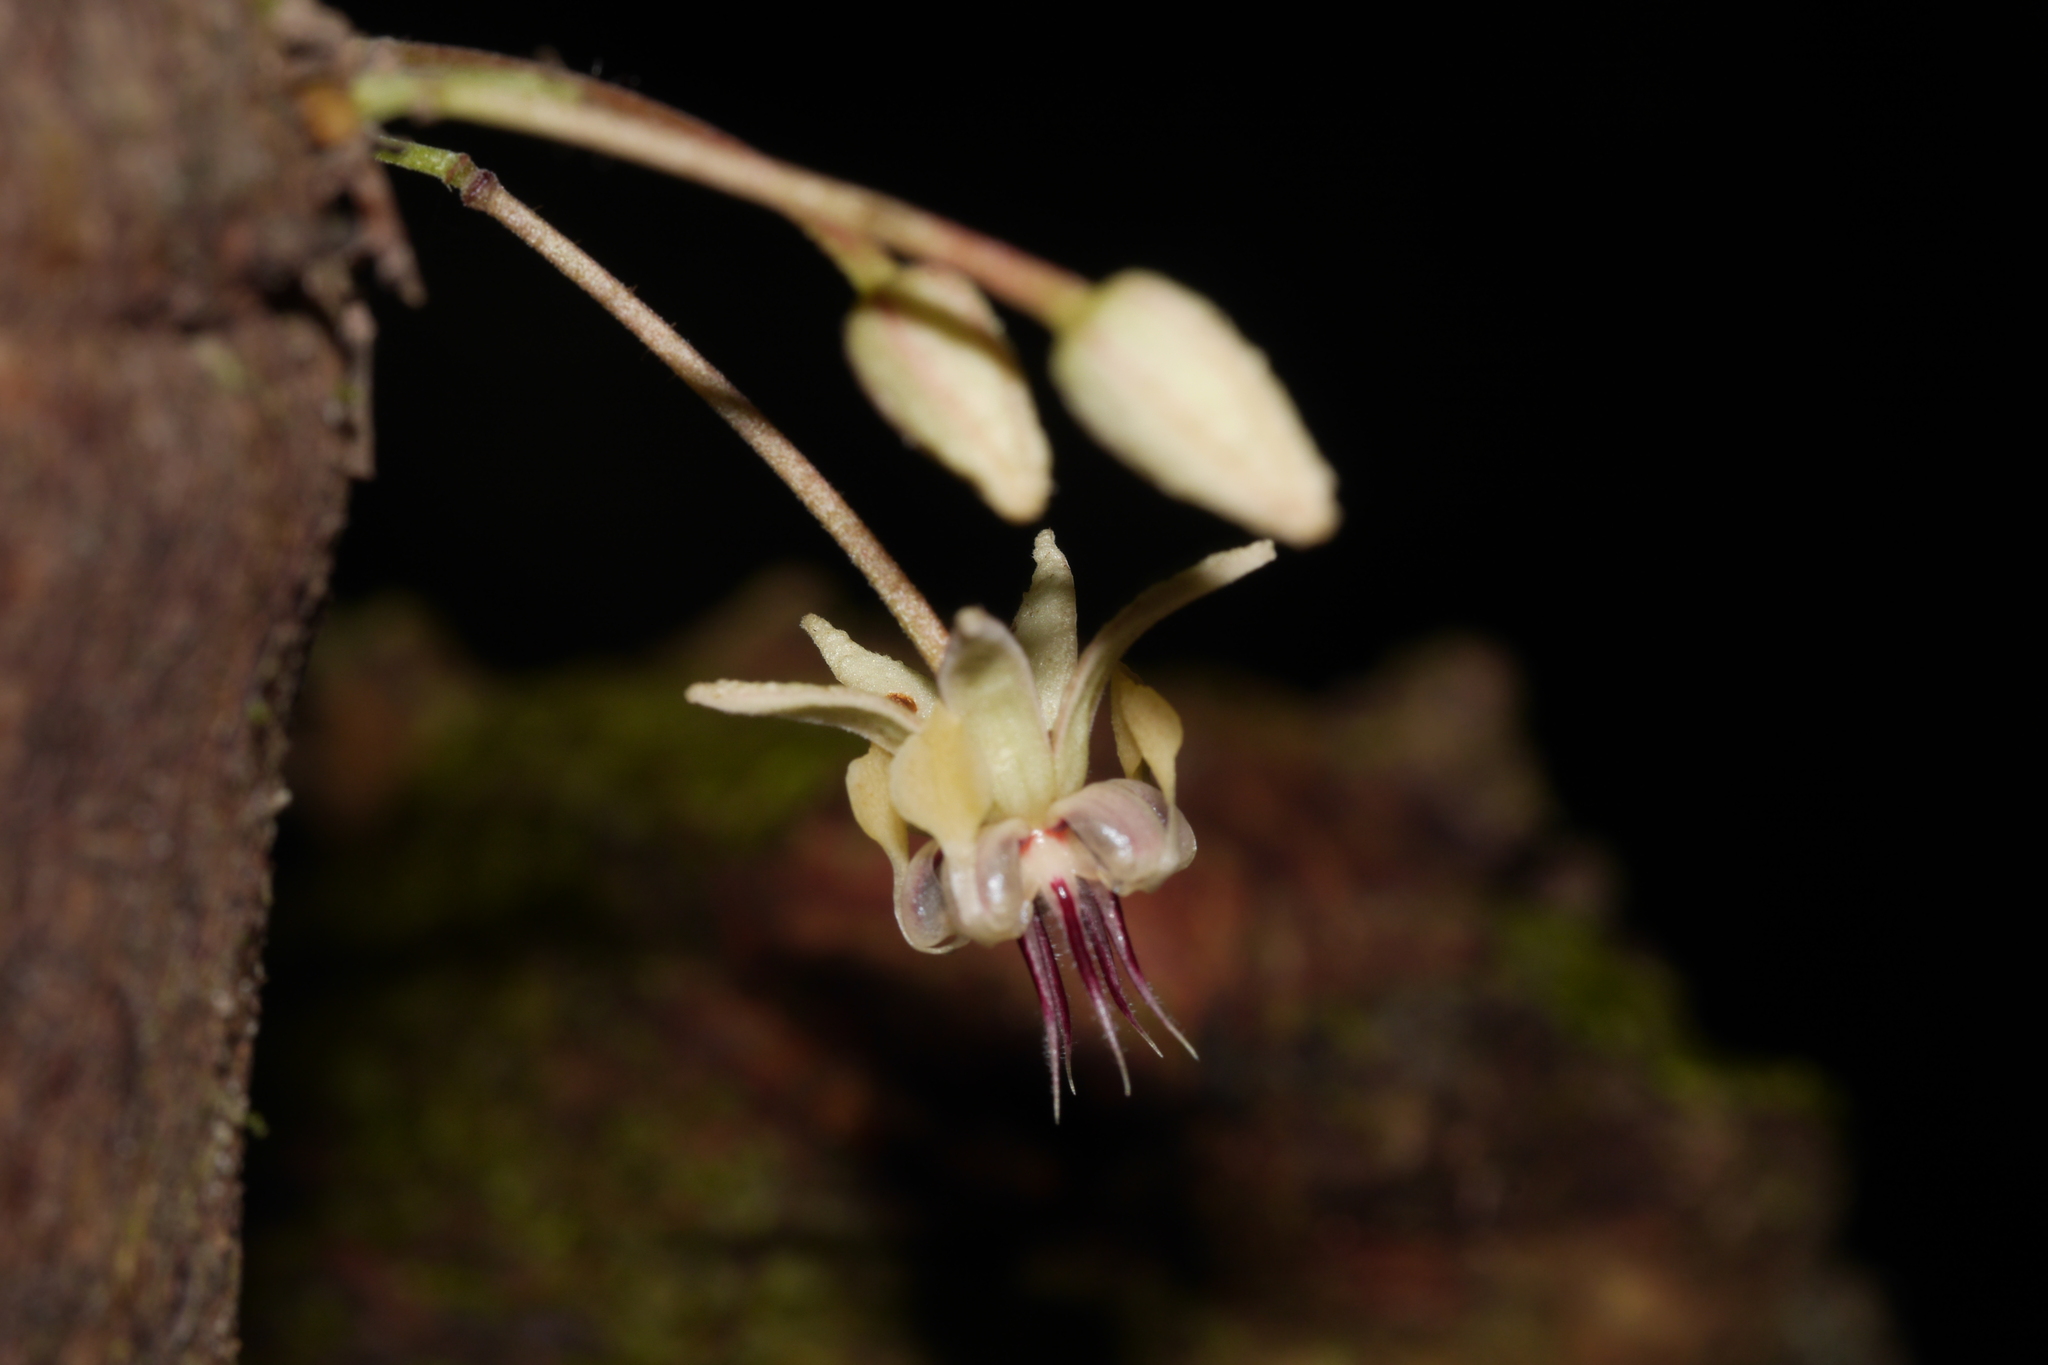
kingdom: Plantae
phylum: Tracheophyta
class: Magnoliopsida
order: Malvales
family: Malvaceae
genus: Theobroma
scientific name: Theobroma cacao
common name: Cocoa
